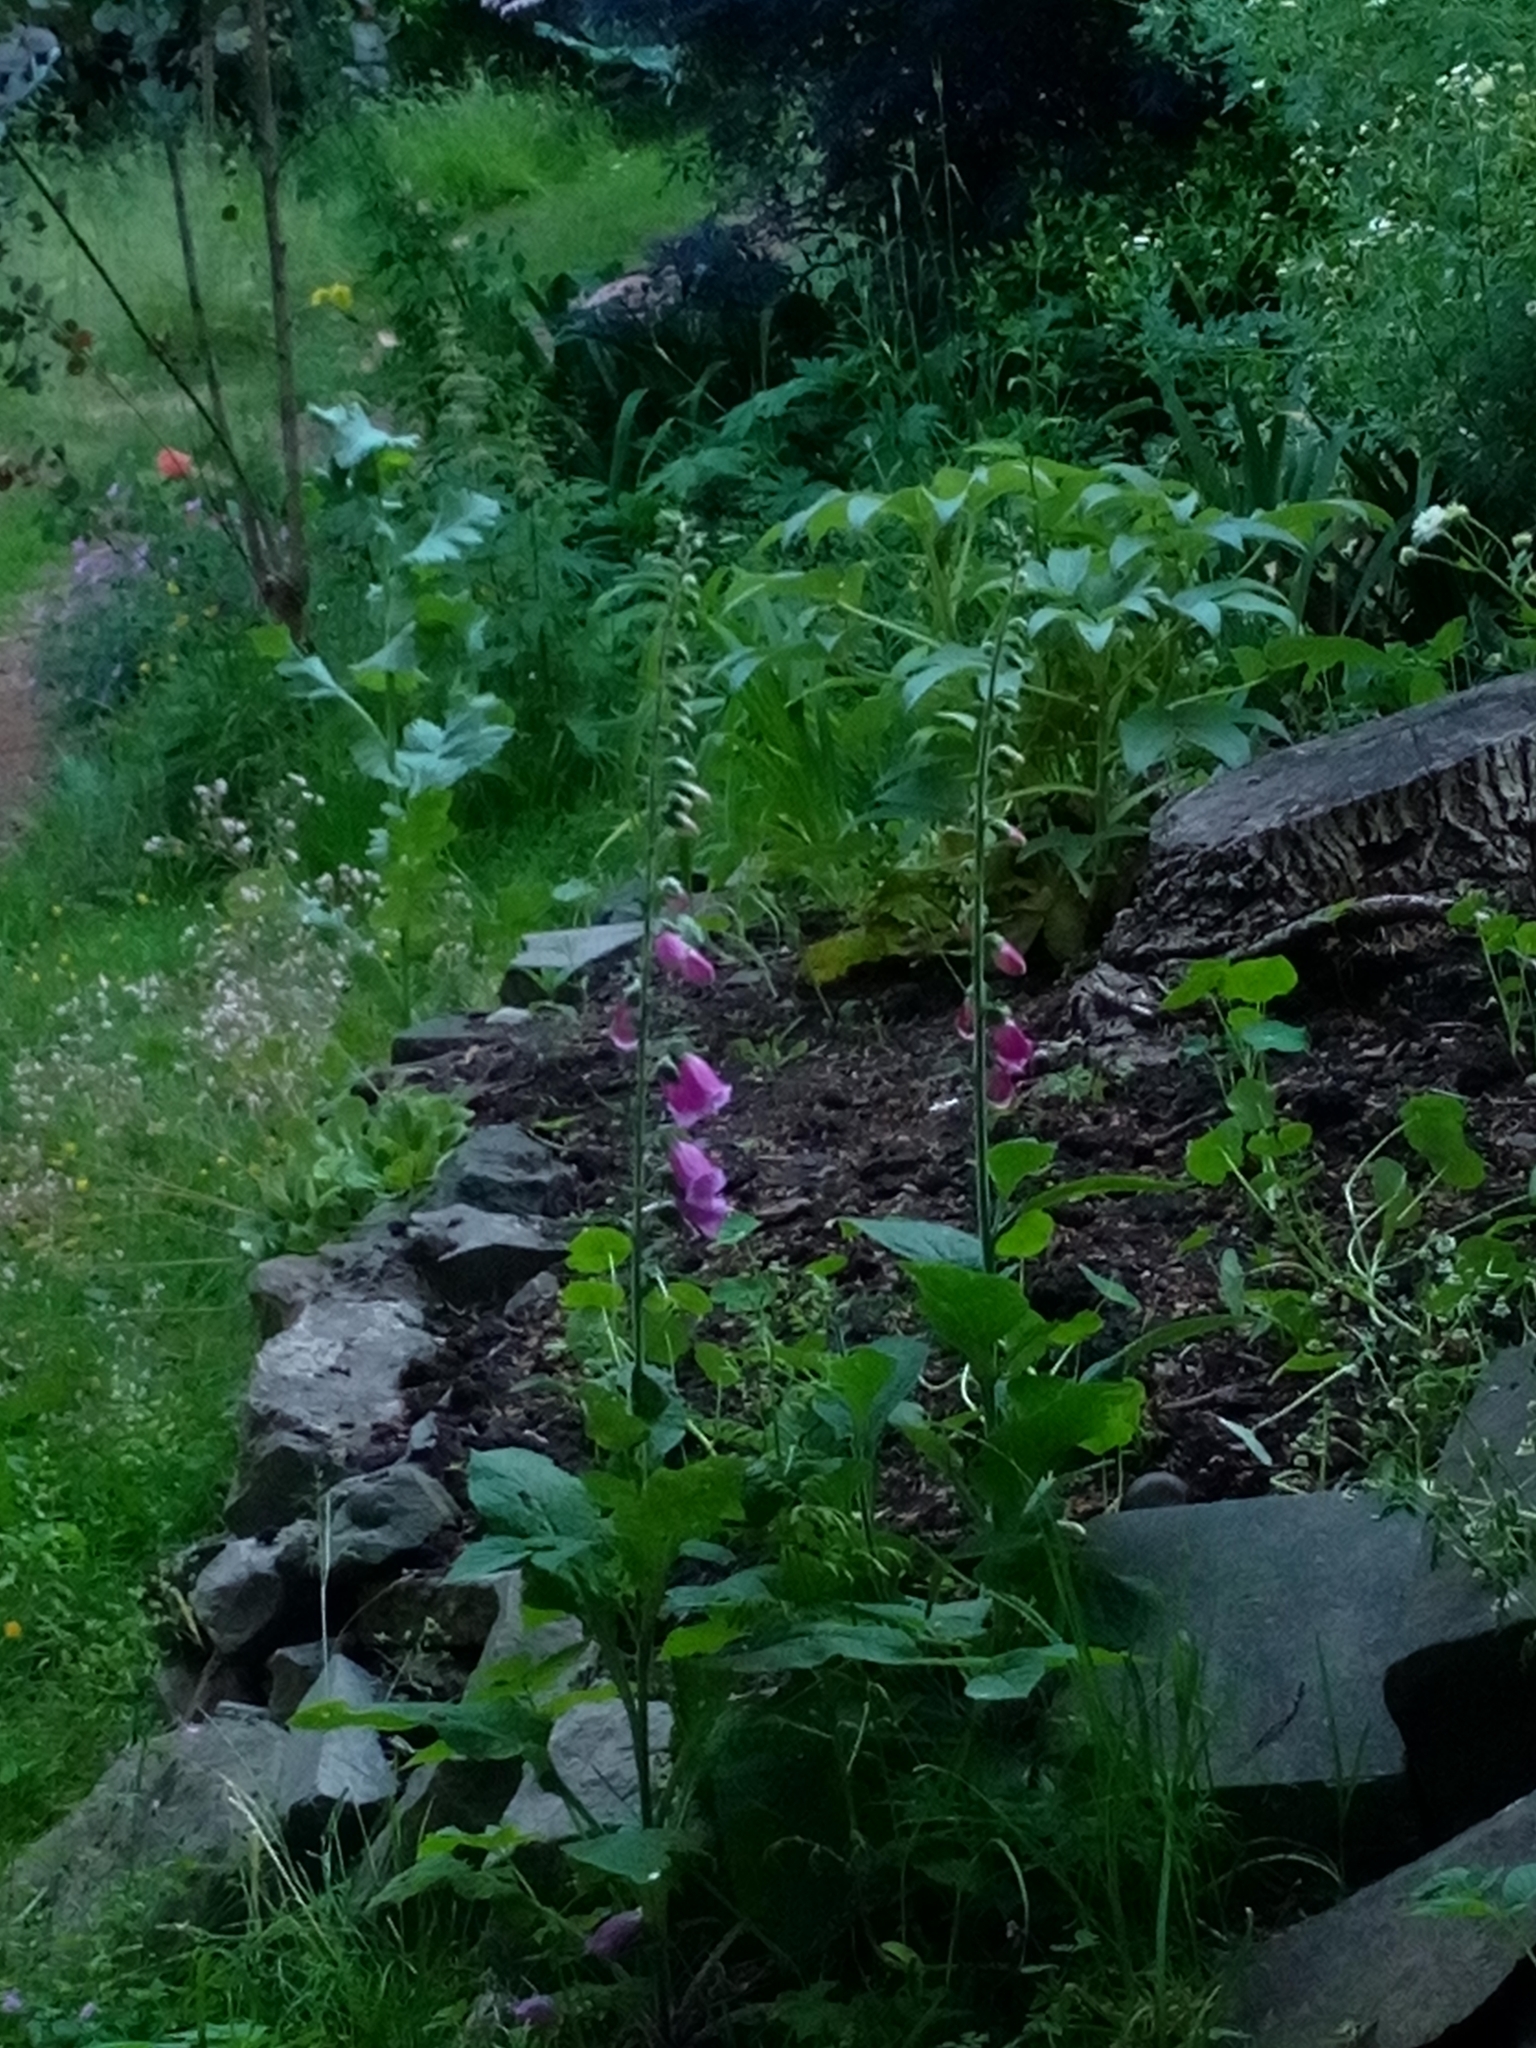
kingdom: Plantae
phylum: Tracheophyta
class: Magnoliopsida
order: Lamiales
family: Plantaginaceae
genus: Digitalis
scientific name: Digitalis purpurea
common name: Foxglove
